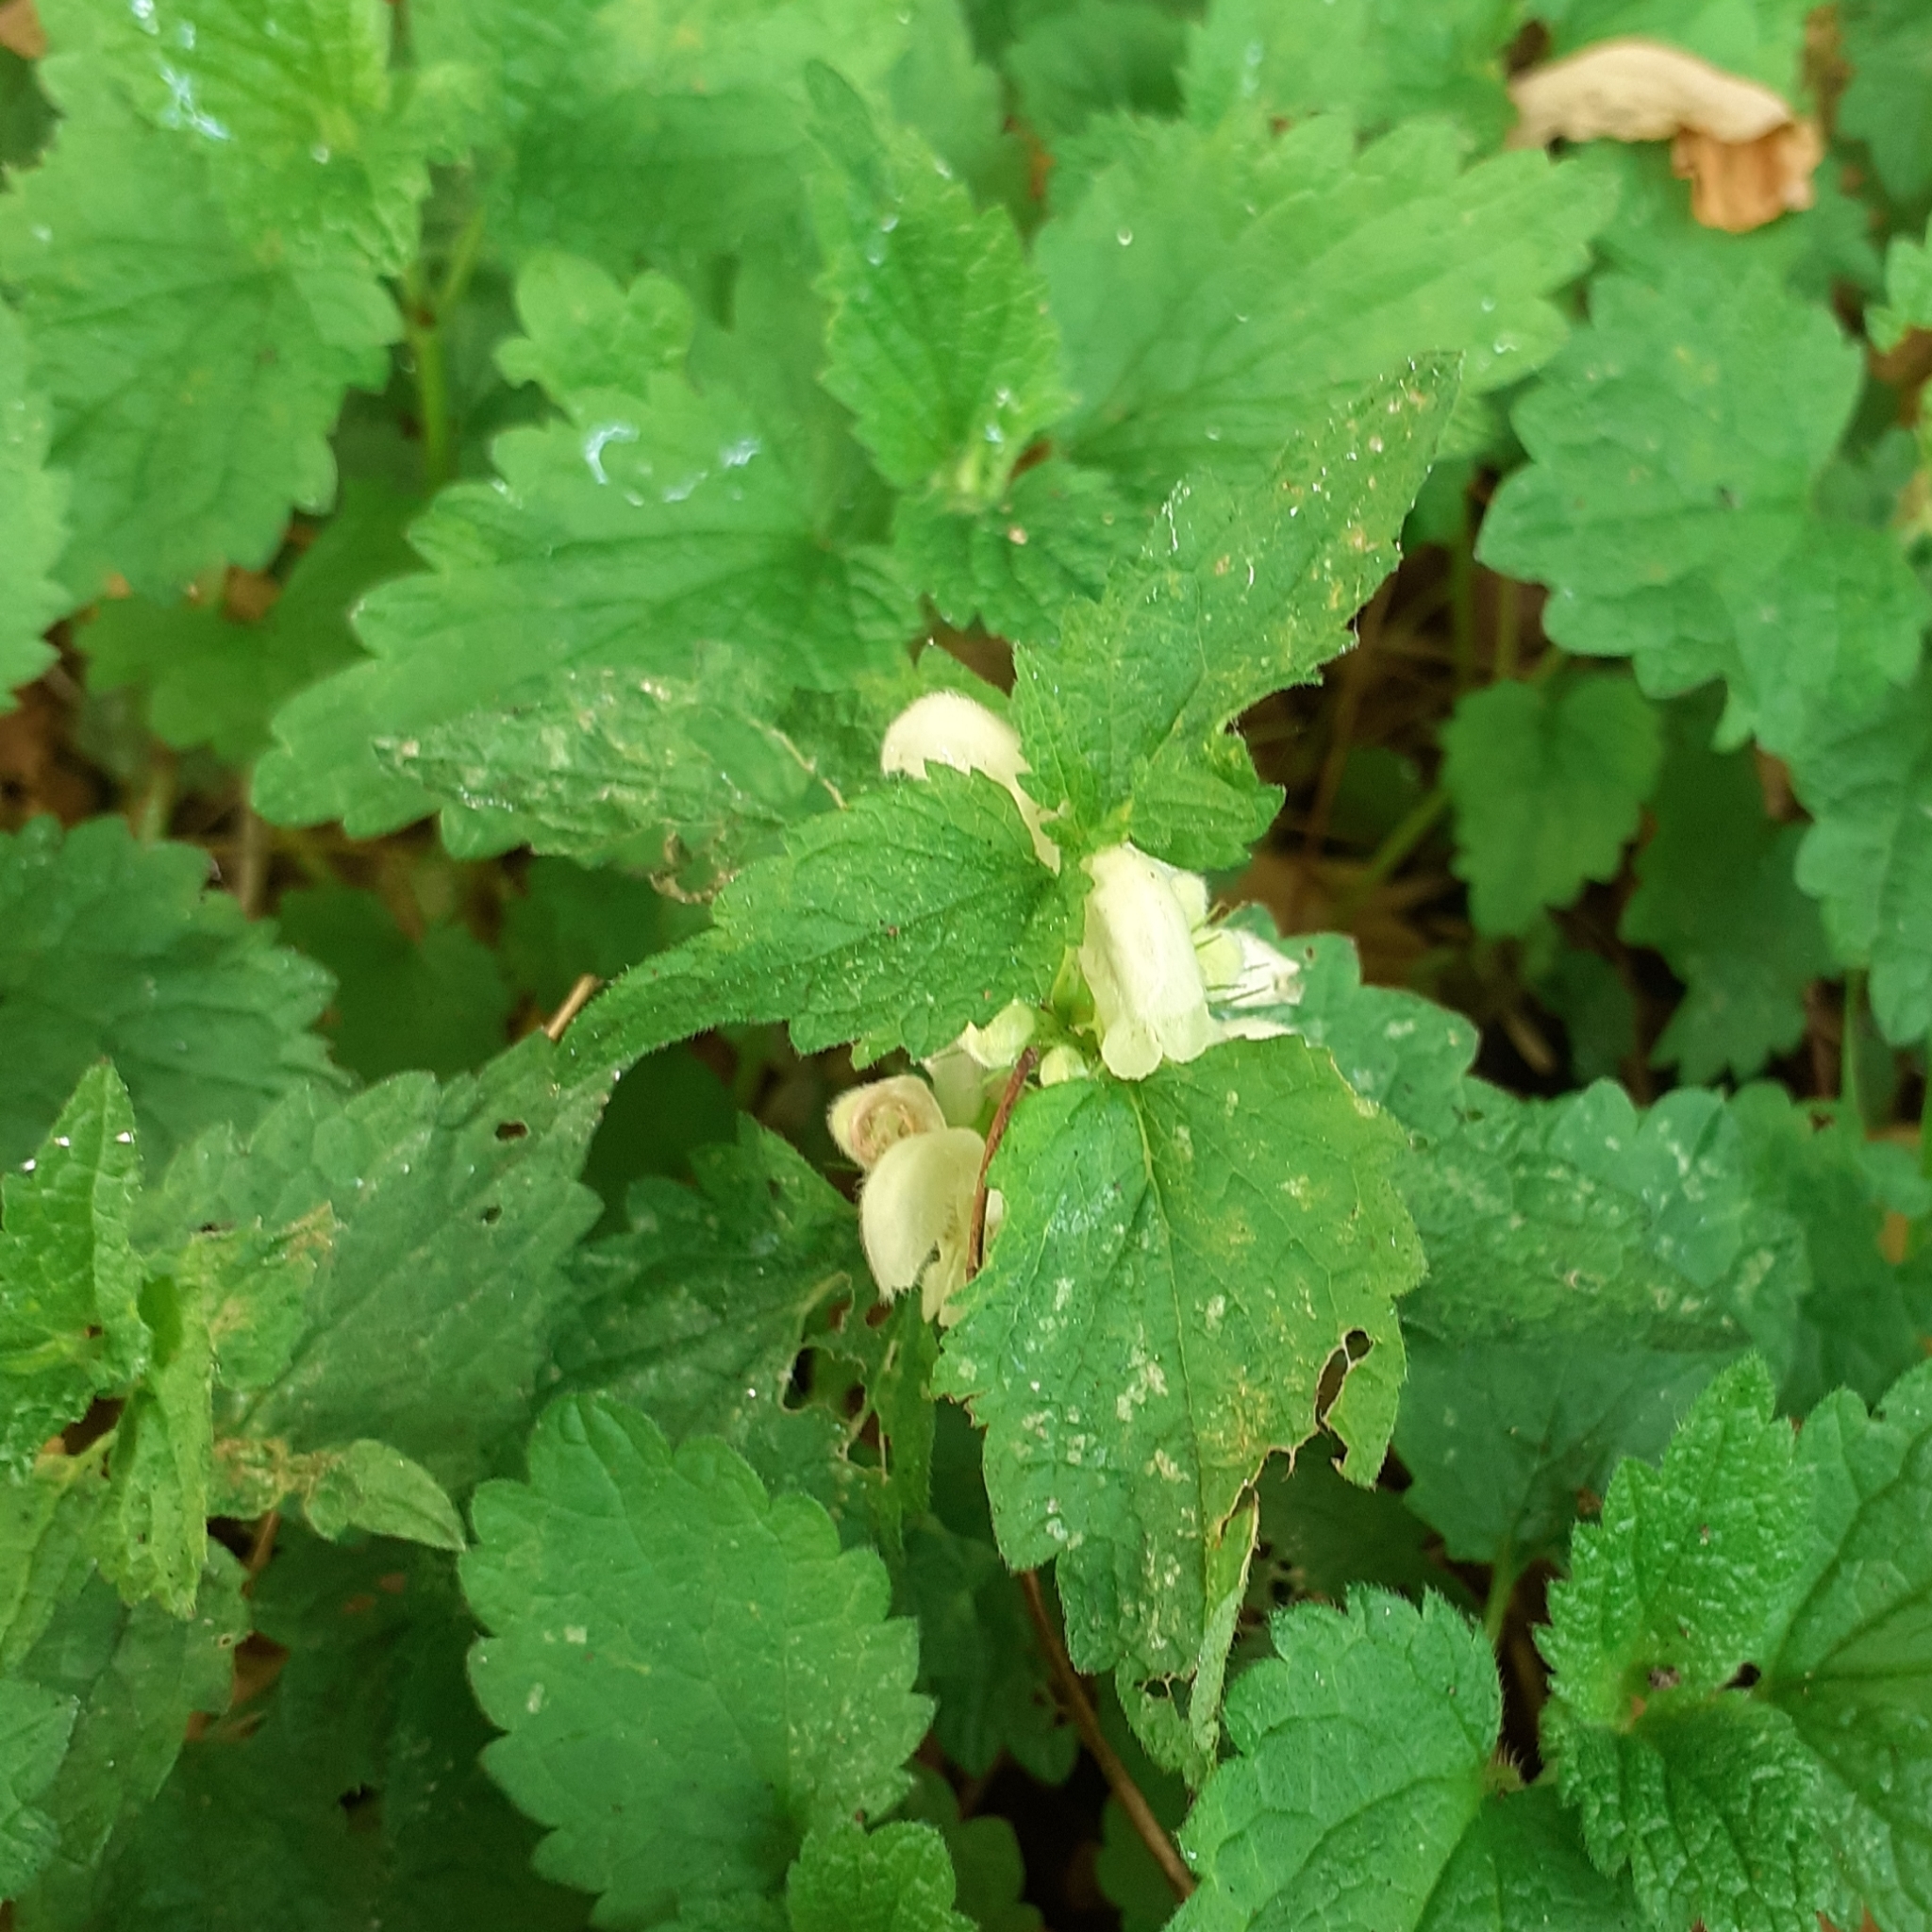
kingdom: Plantae
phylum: Tracheophyta
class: Magnoliopsida
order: Lamiales
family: Lamiaceae
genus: Lamium
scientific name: Lamium album
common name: White dead-nettle
